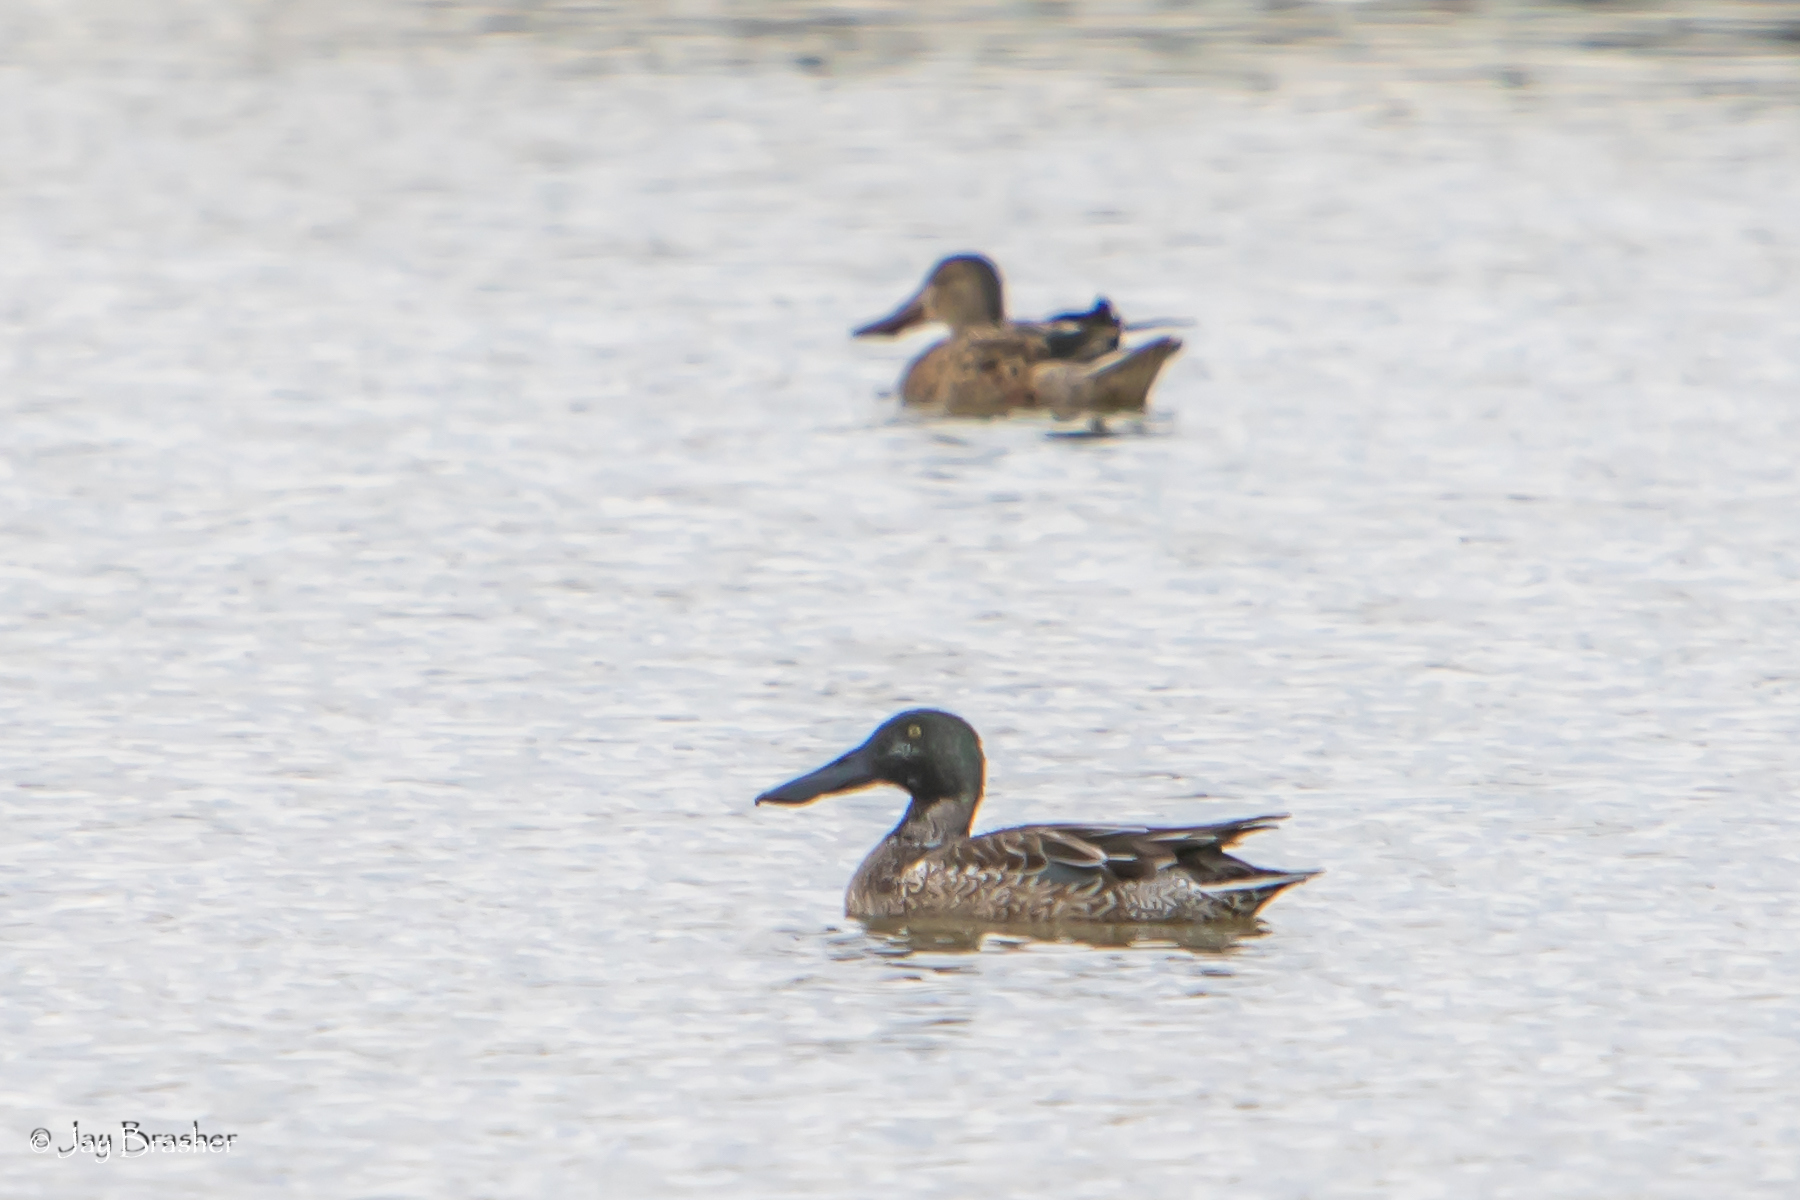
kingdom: Animalia
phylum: Chordata
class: Aves
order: Anseriformes
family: Anatidae
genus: Spatula
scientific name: Spatula clypeata
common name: Northern shoveler
